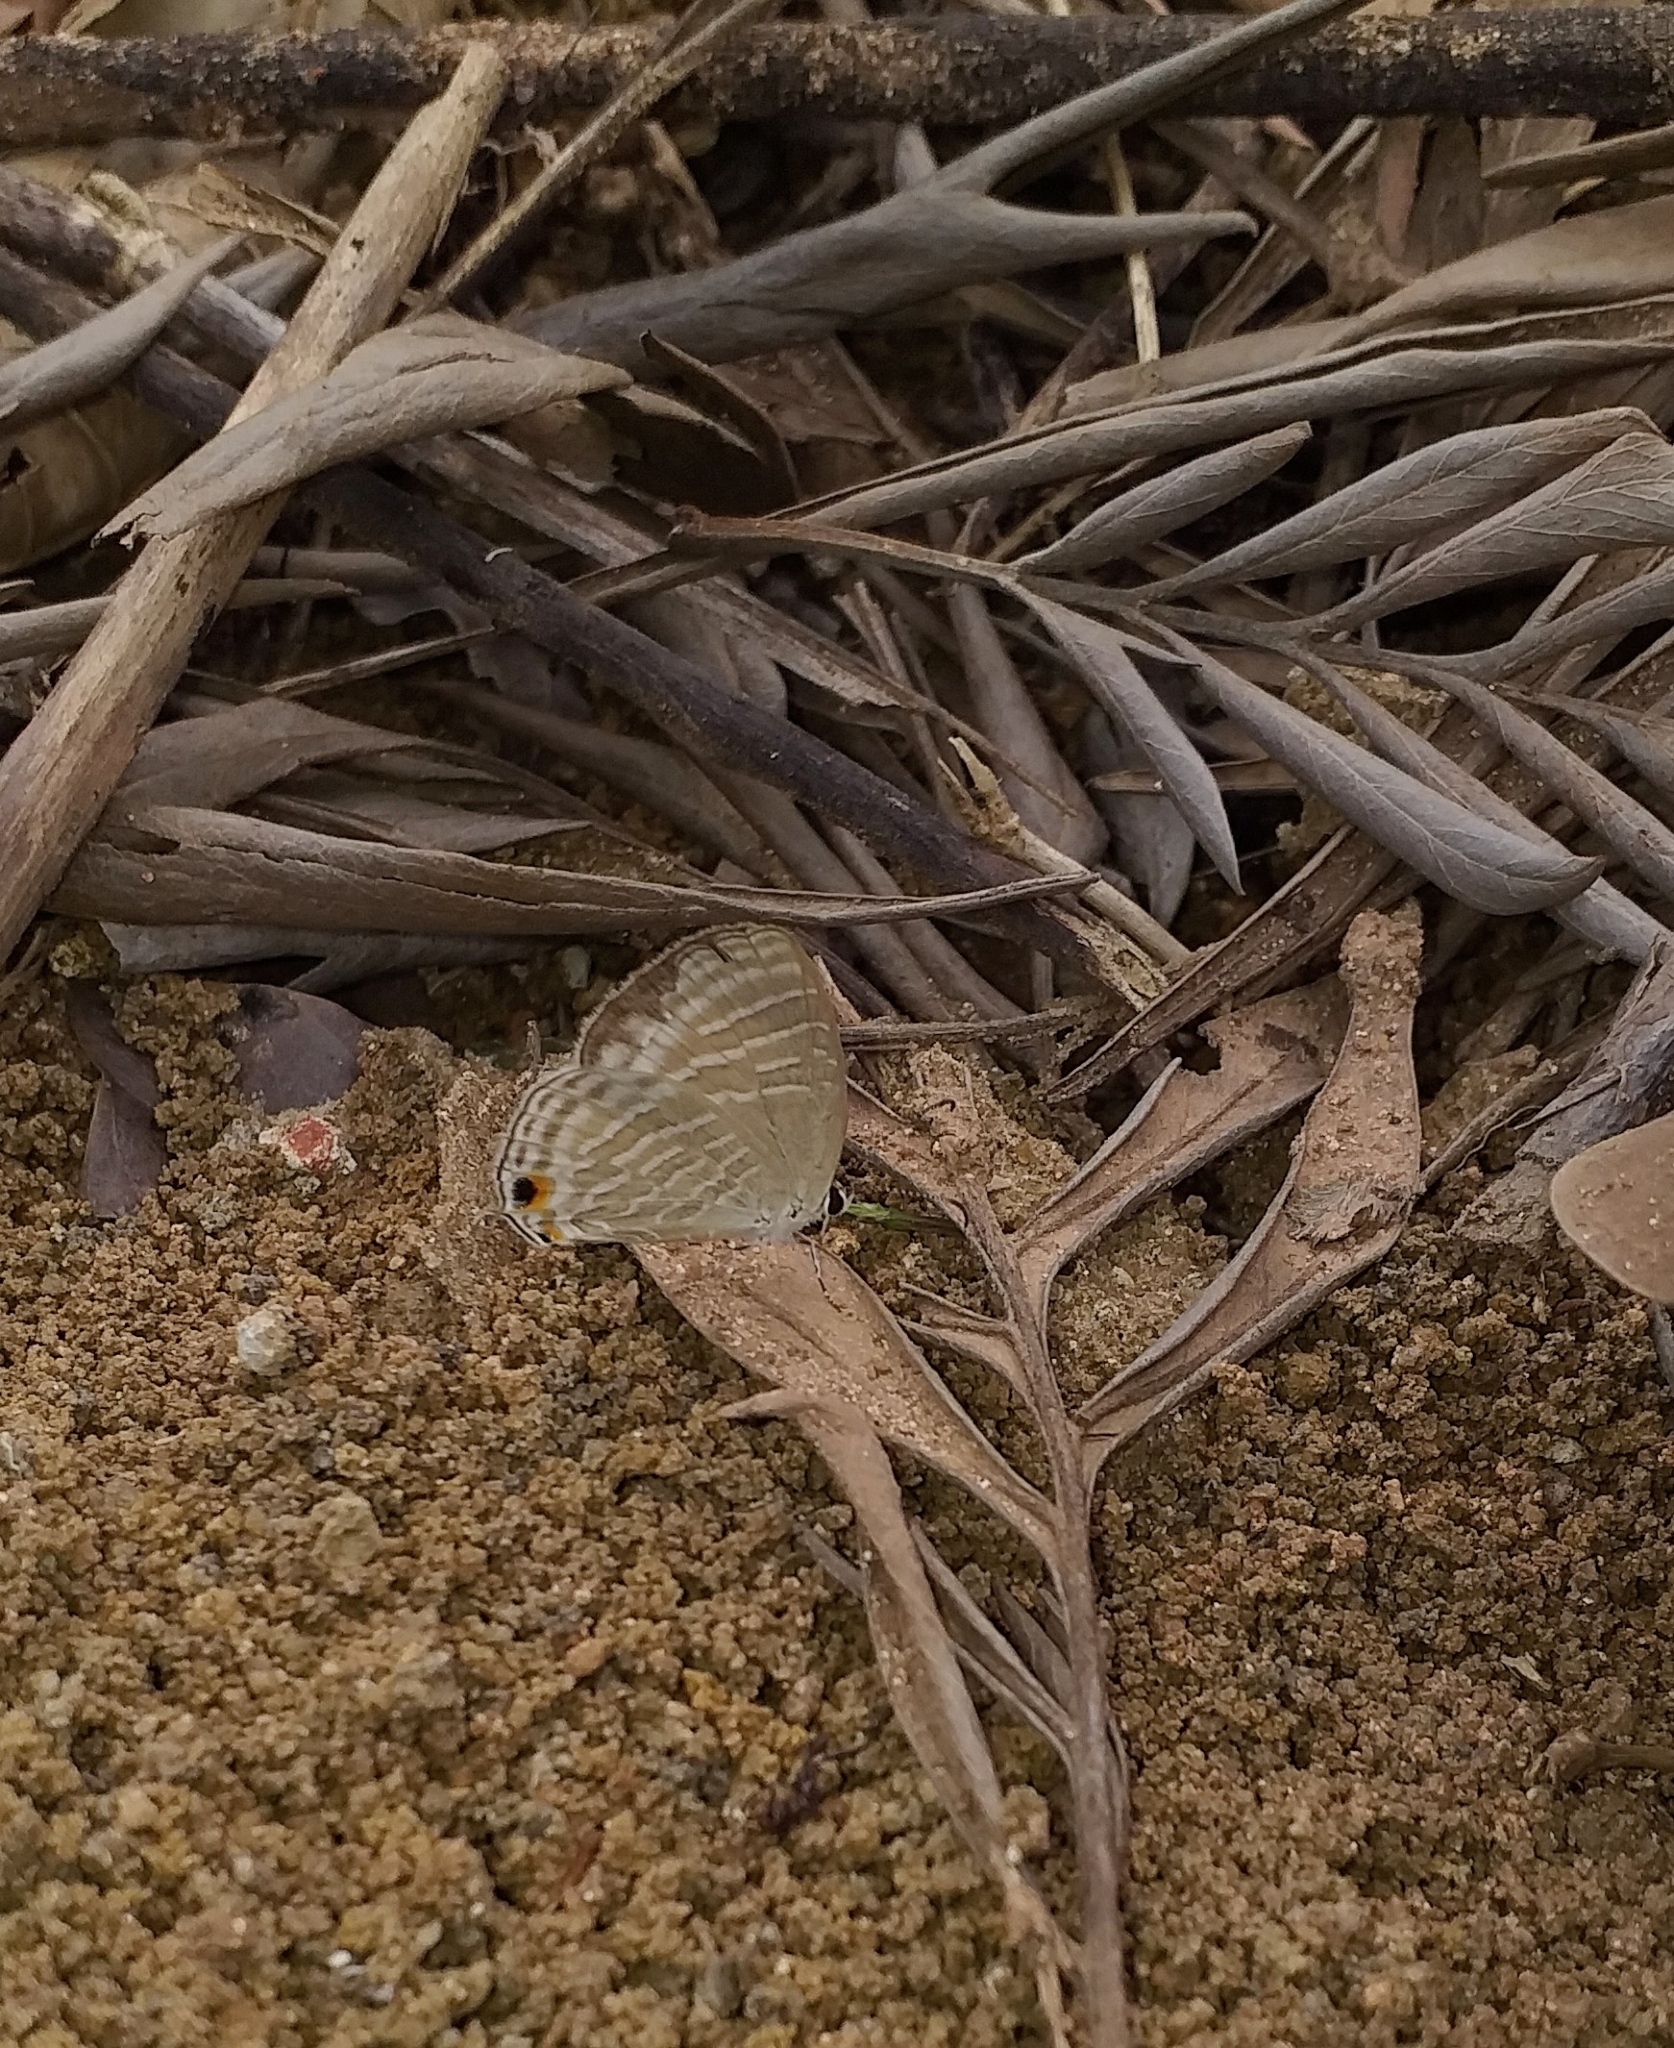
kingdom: Animalia
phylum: Arthropoda
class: Insecta
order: Lepidoptera
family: Lycaenidae
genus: Jamides
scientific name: Jamides celeno
